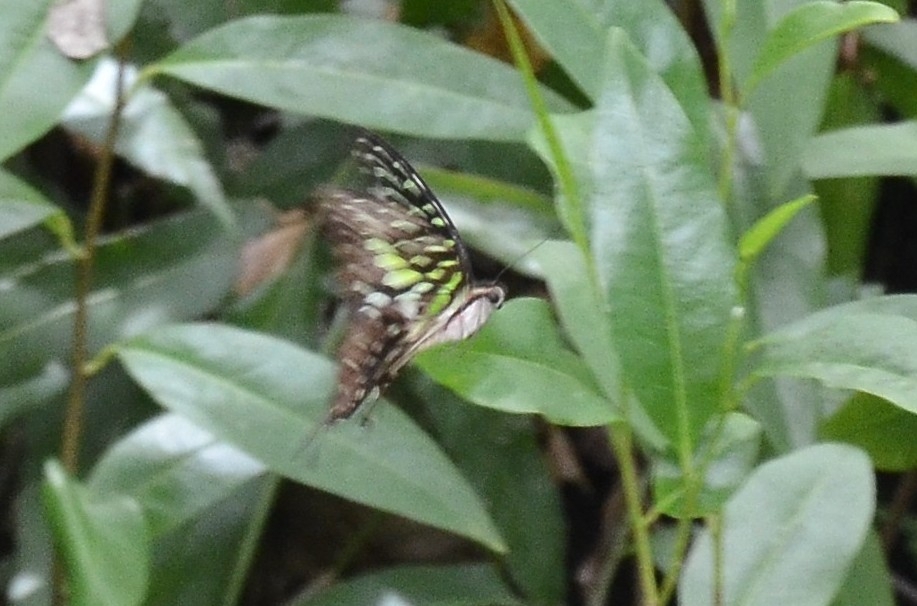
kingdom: Animalia
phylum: Arthropoda
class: Insecta
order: Lepidoptera
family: Papilionidae
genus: Graphium
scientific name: Graphium agamemnon
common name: Tailed jay
